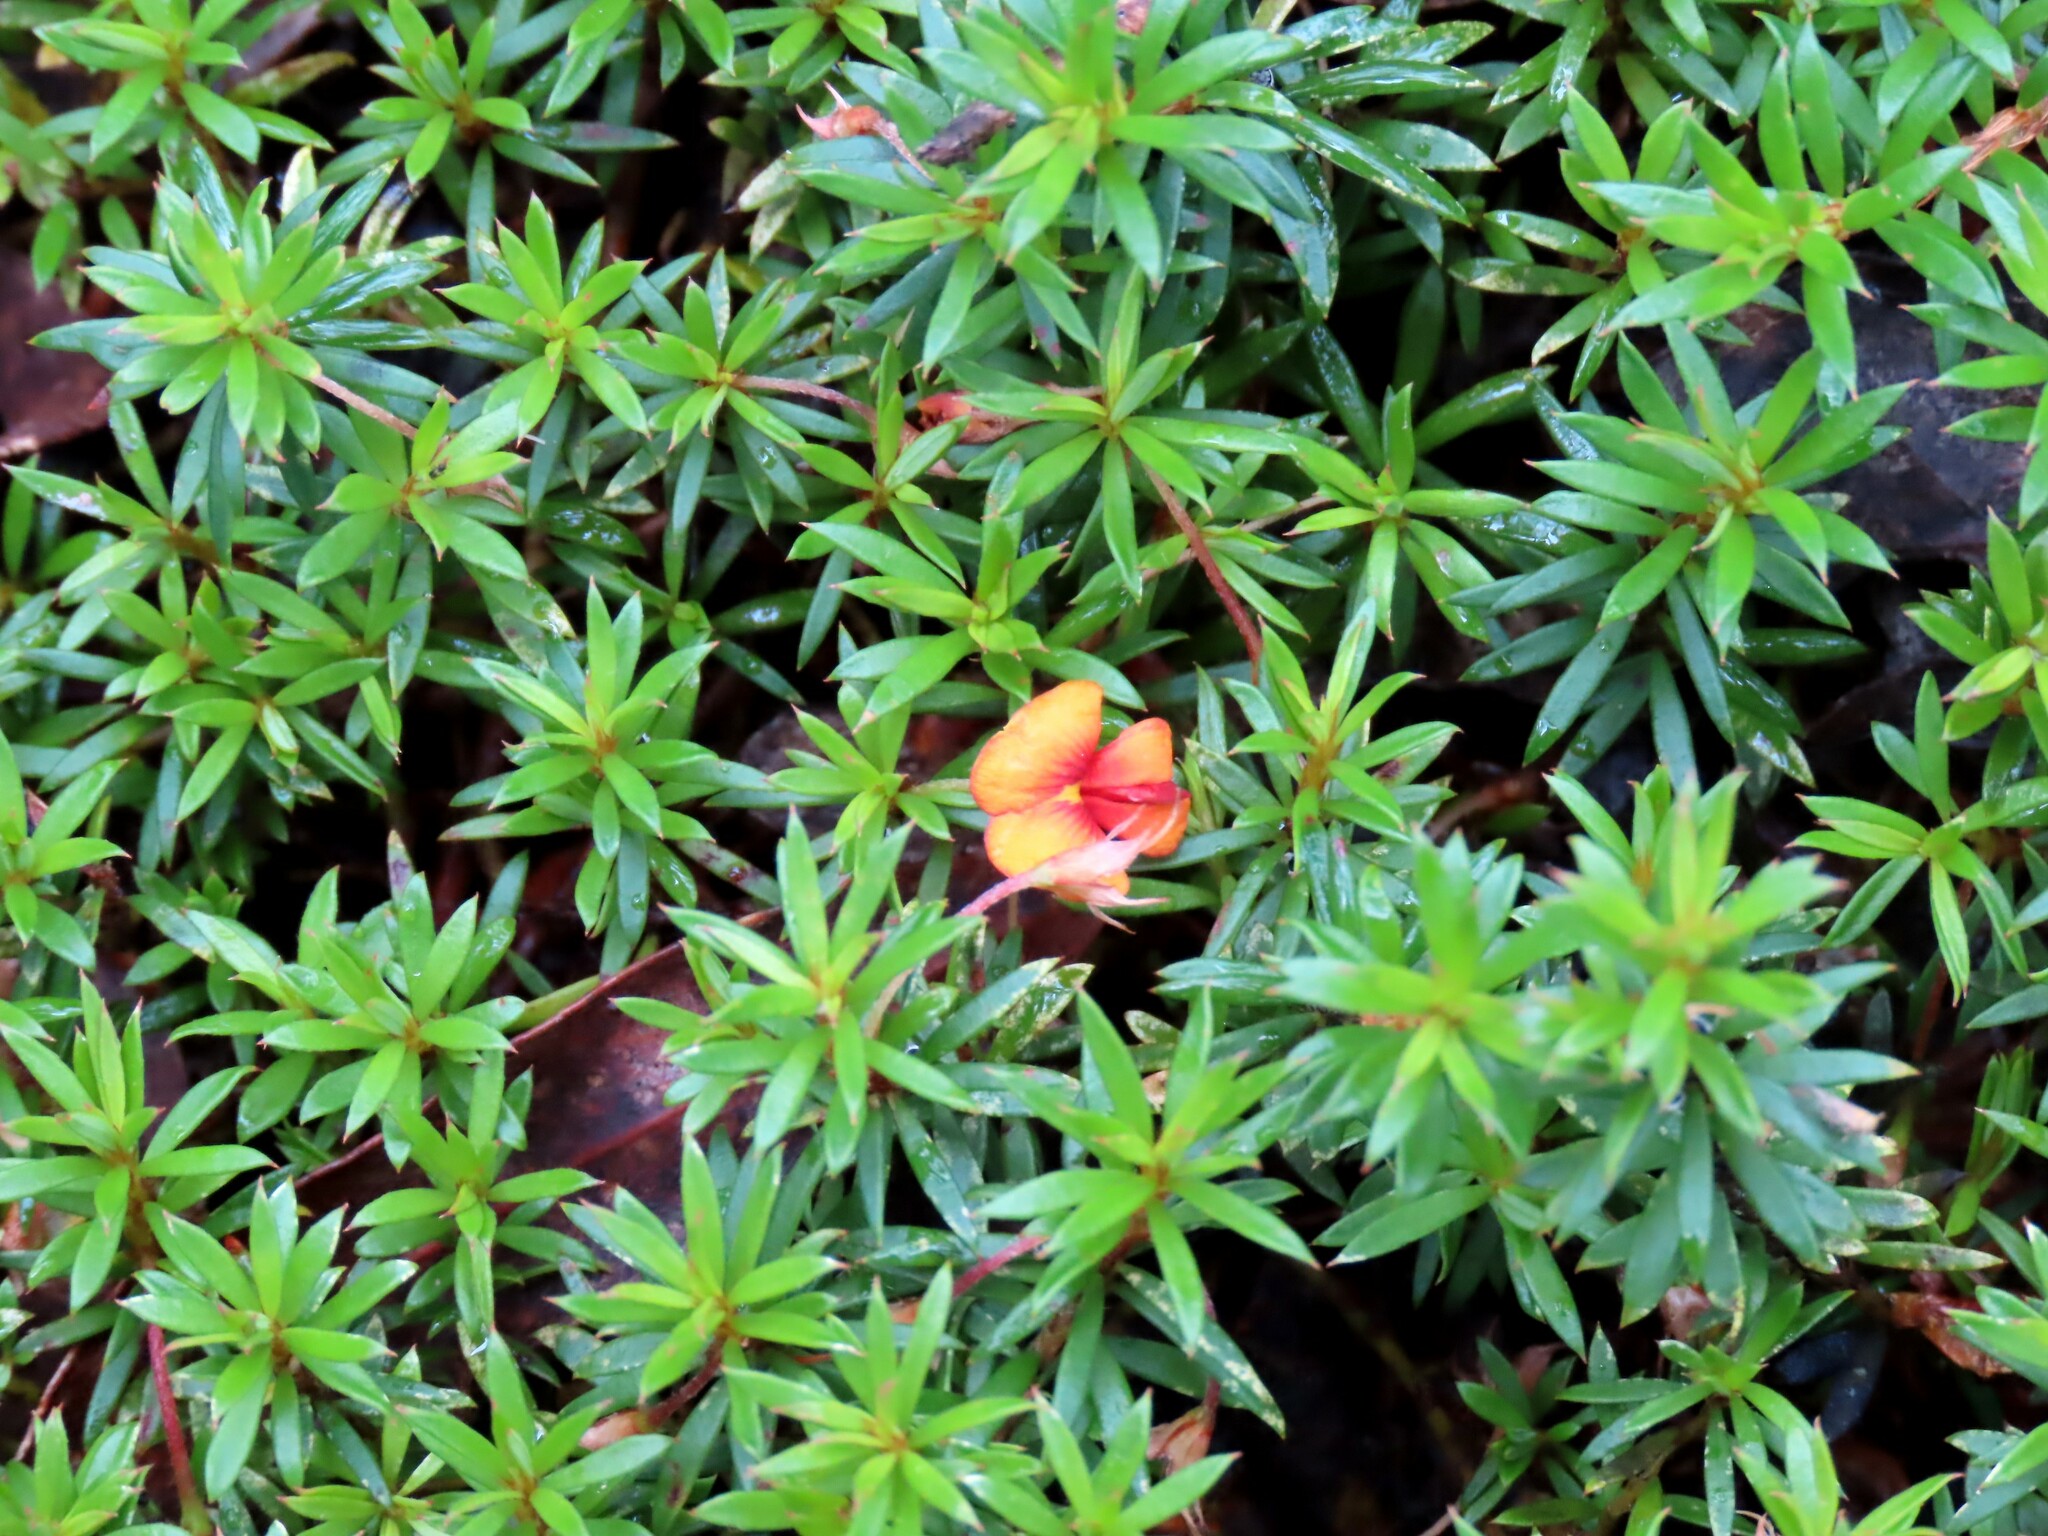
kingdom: Plantae
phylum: Tracheophyta
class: Magnoliopsida
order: Fabales
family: Fabaceae
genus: Pultenaea
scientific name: Pultenaea pedunculata
